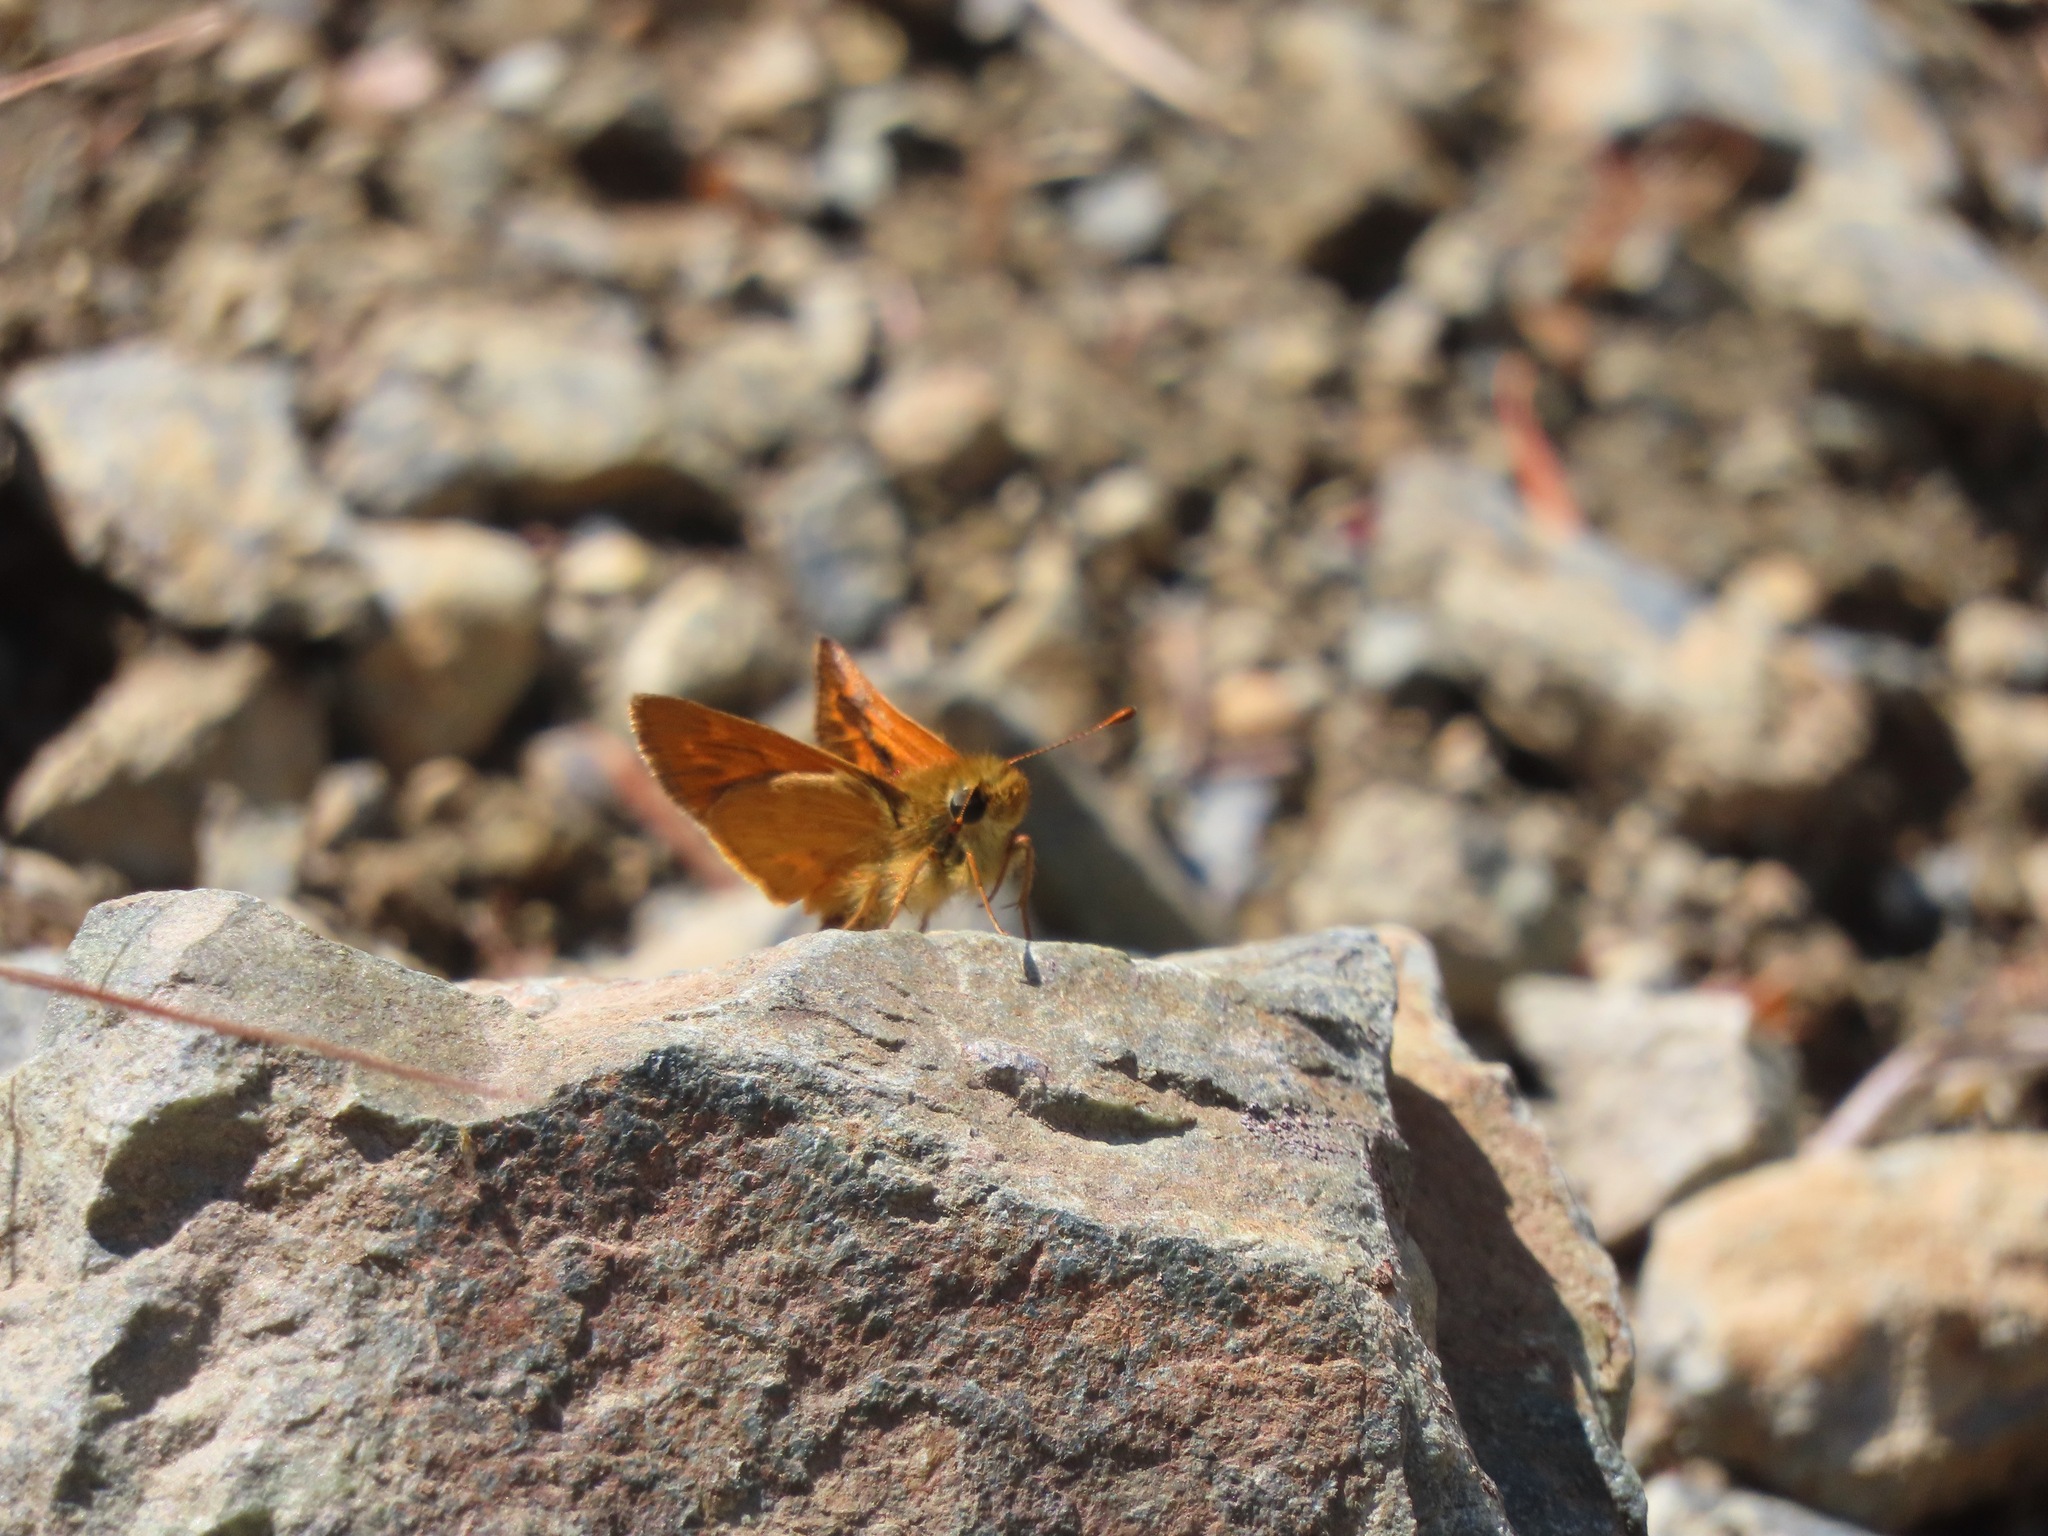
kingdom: Animalia
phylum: Arthropoda
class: Insecta
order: Lepidoptera
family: Hesperiidae
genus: Ochlodes
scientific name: Ochlodes sylvanoides
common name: Woodland skipper
